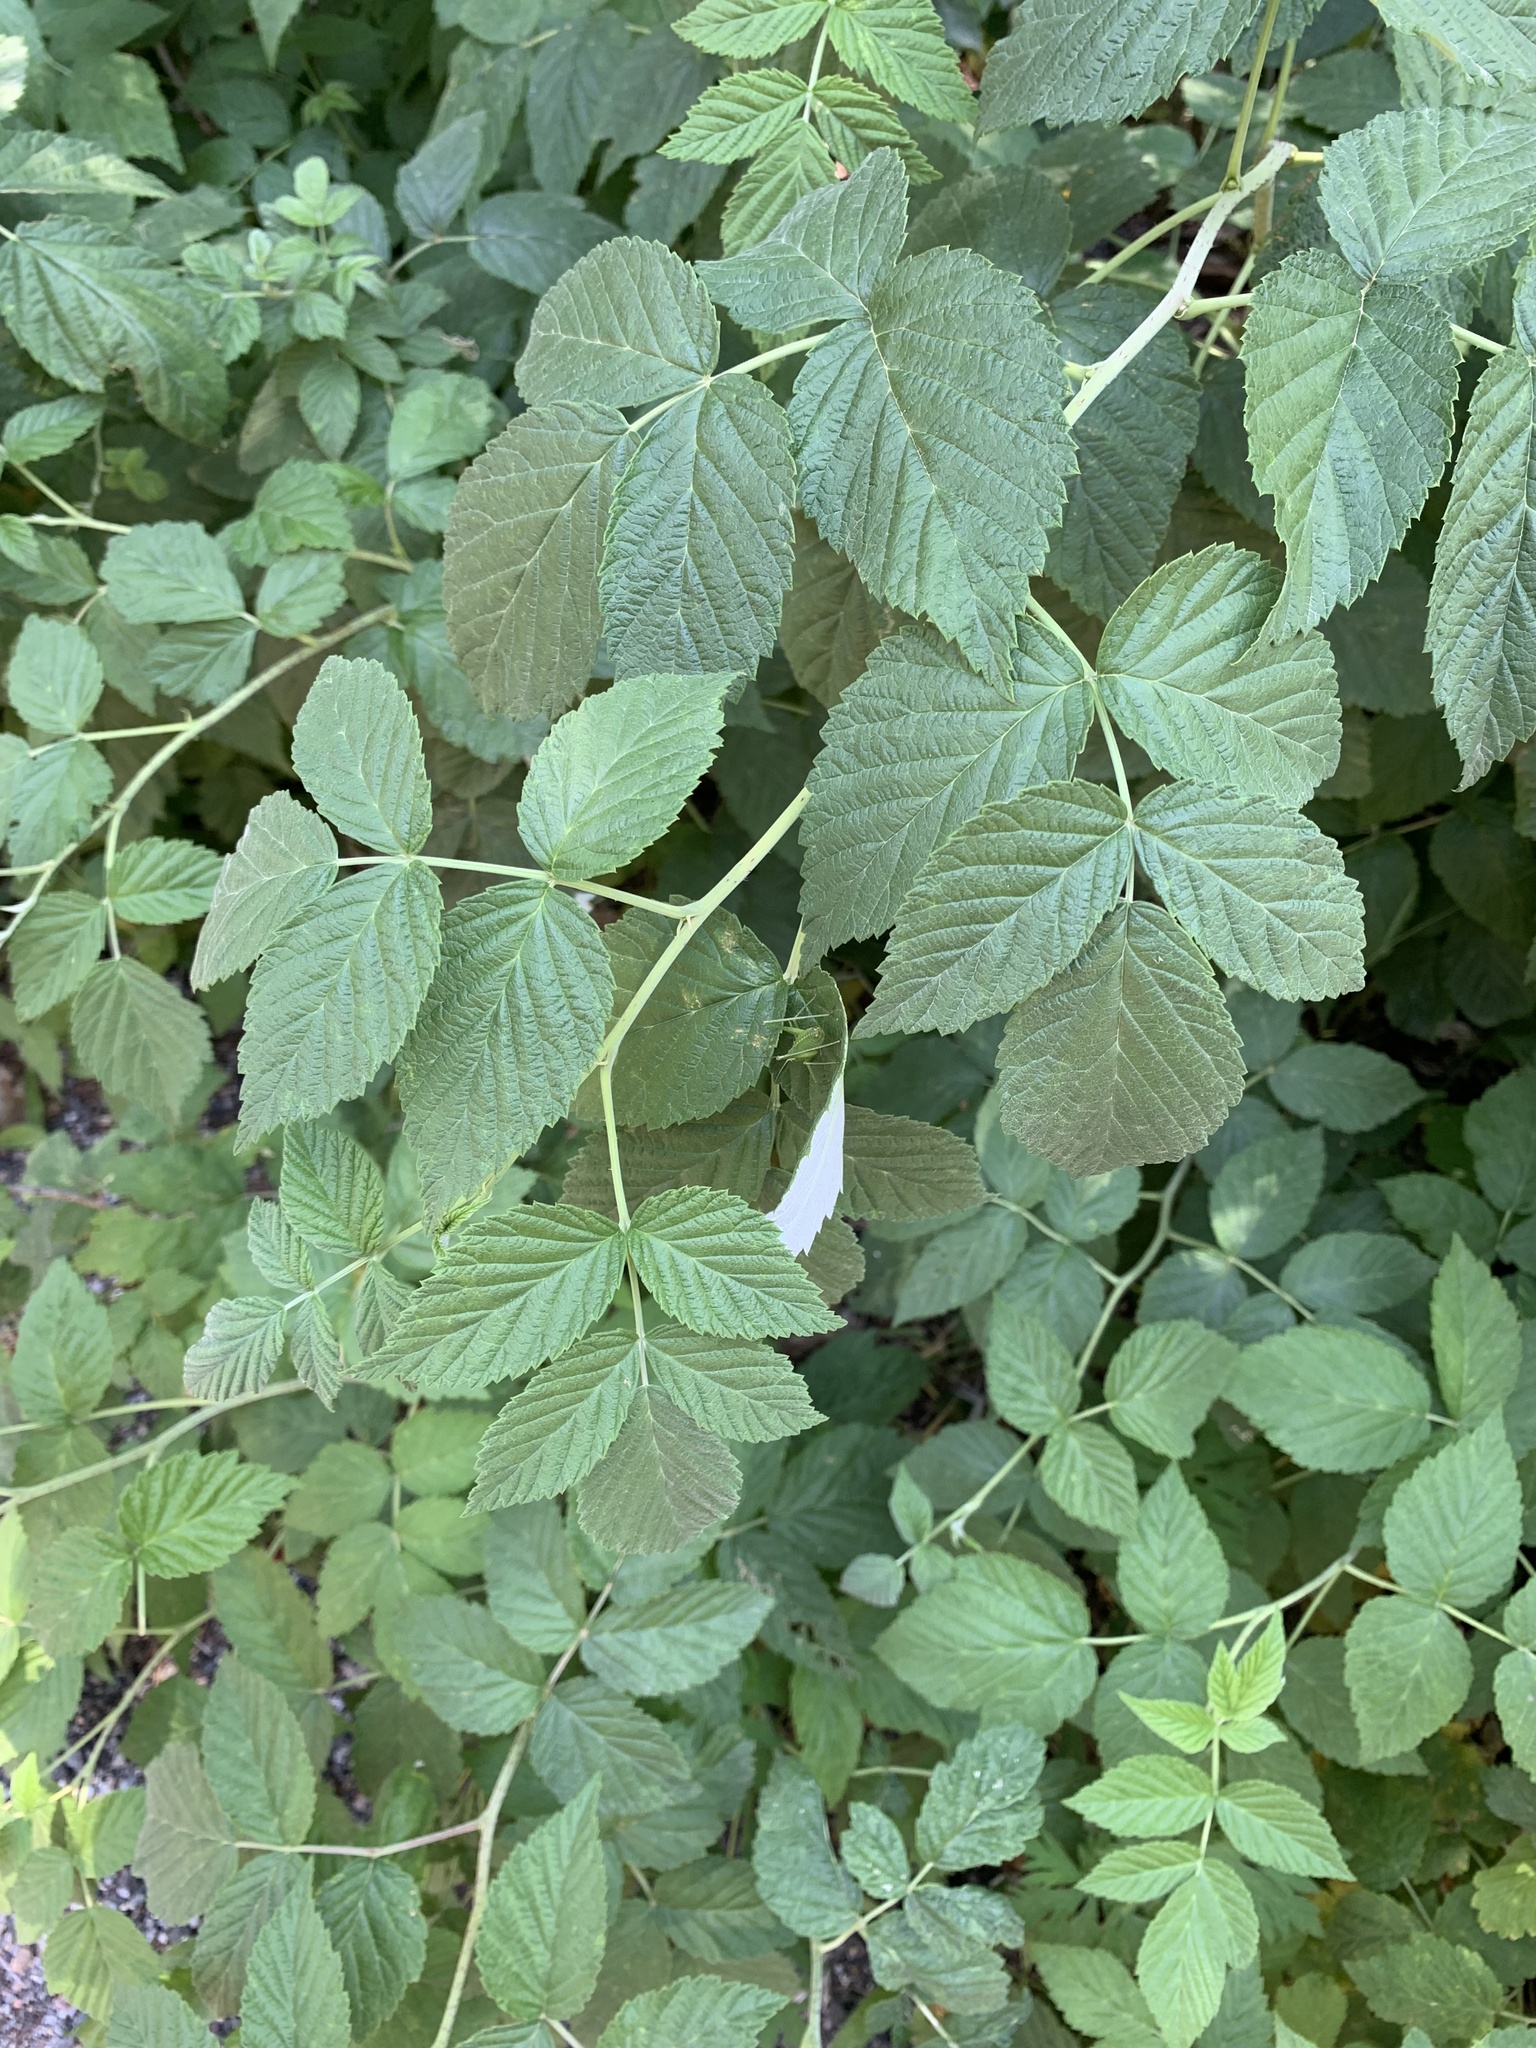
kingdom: Plantae
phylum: Tracheophyta
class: Magnoliopsida
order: Rosales
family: Rosaceae
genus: Rubus
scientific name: Rubus idaeus
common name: Raspberry
